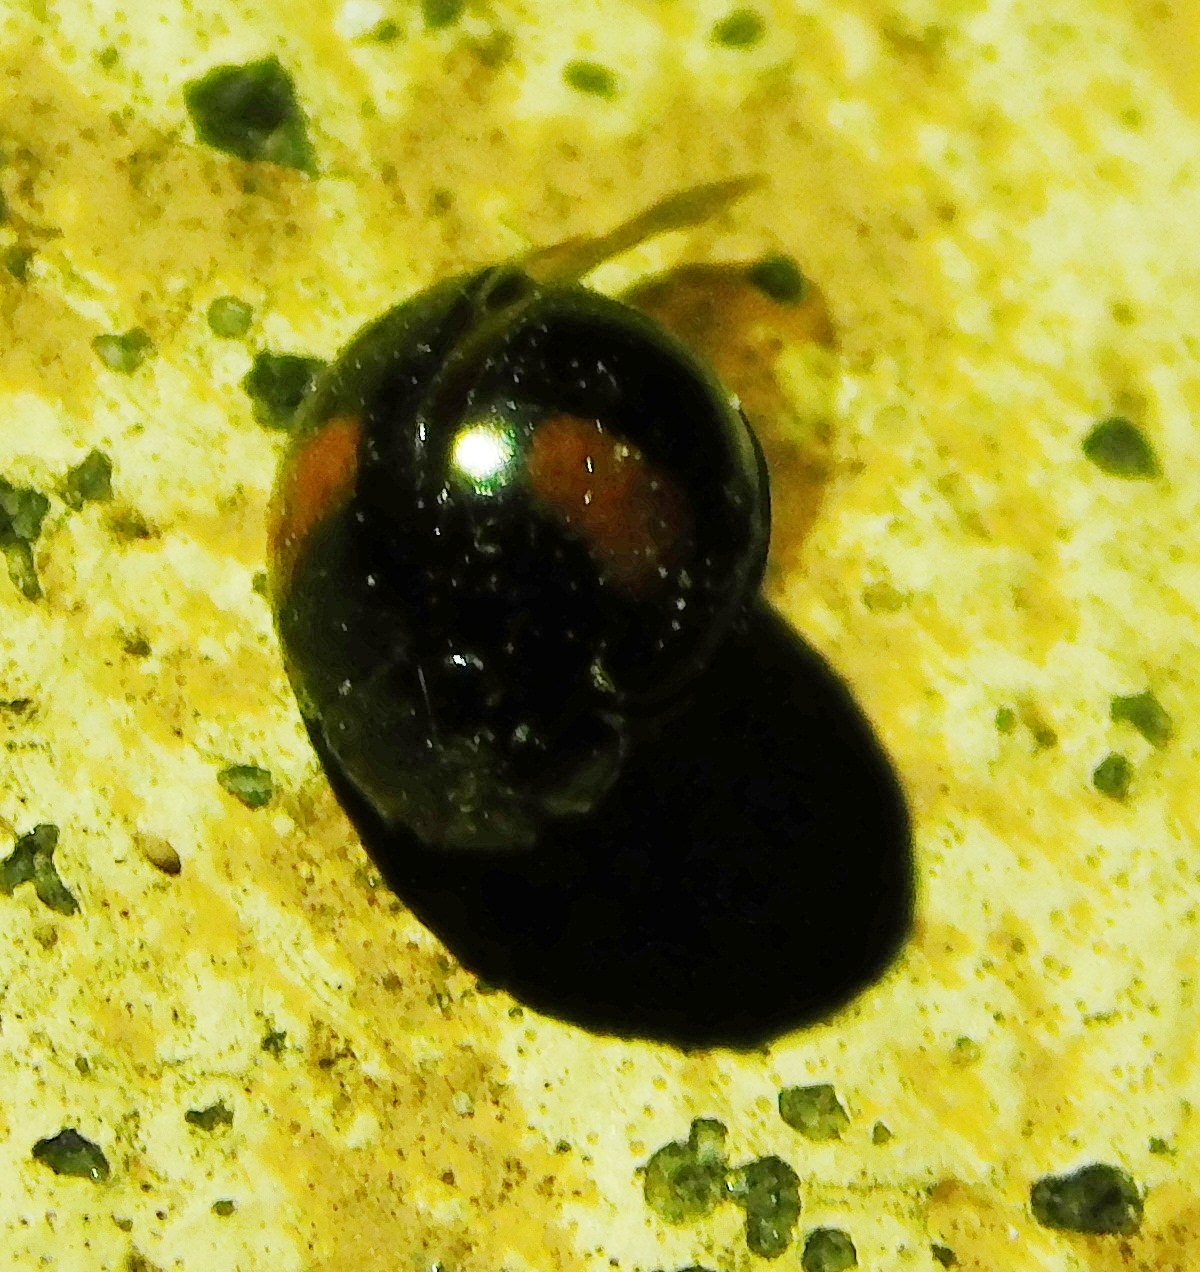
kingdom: Animalia
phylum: Arthropoda
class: Insecta
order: Coleoptera
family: Coccinellidae
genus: Olla
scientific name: Olla v-nigrum
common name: Ashy gray lady beetle
